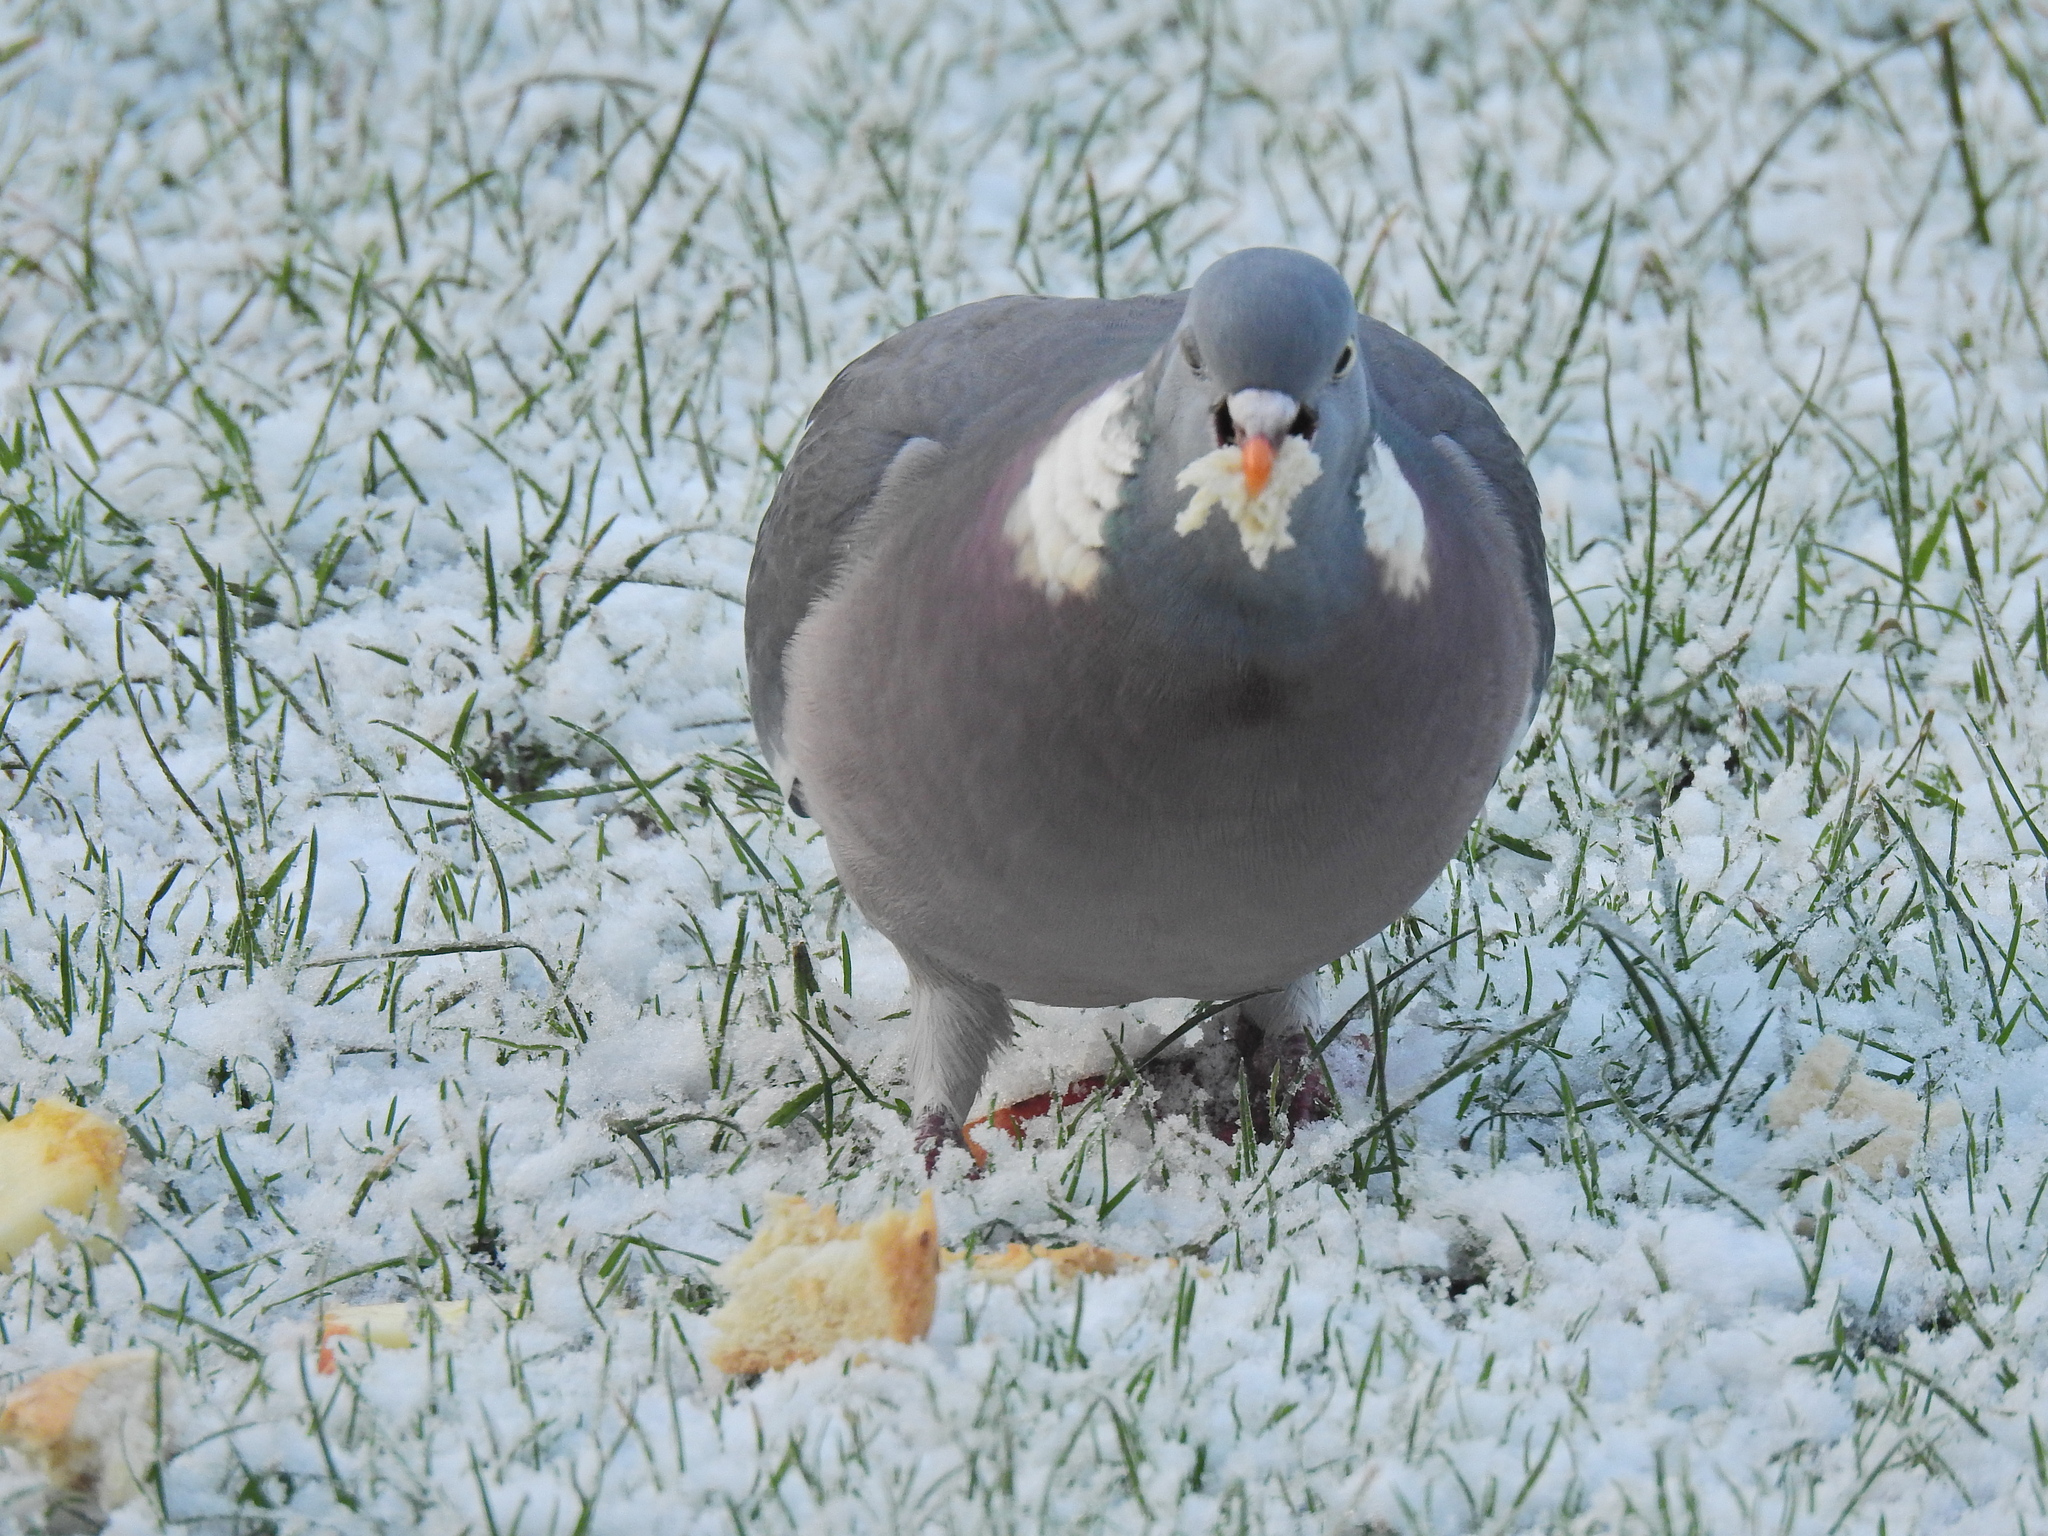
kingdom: Animalia
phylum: Chordata
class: Aves
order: Columbiformes
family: Columbidae
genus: Columba
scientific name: Columba palumbus
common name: Common wood pigeon
